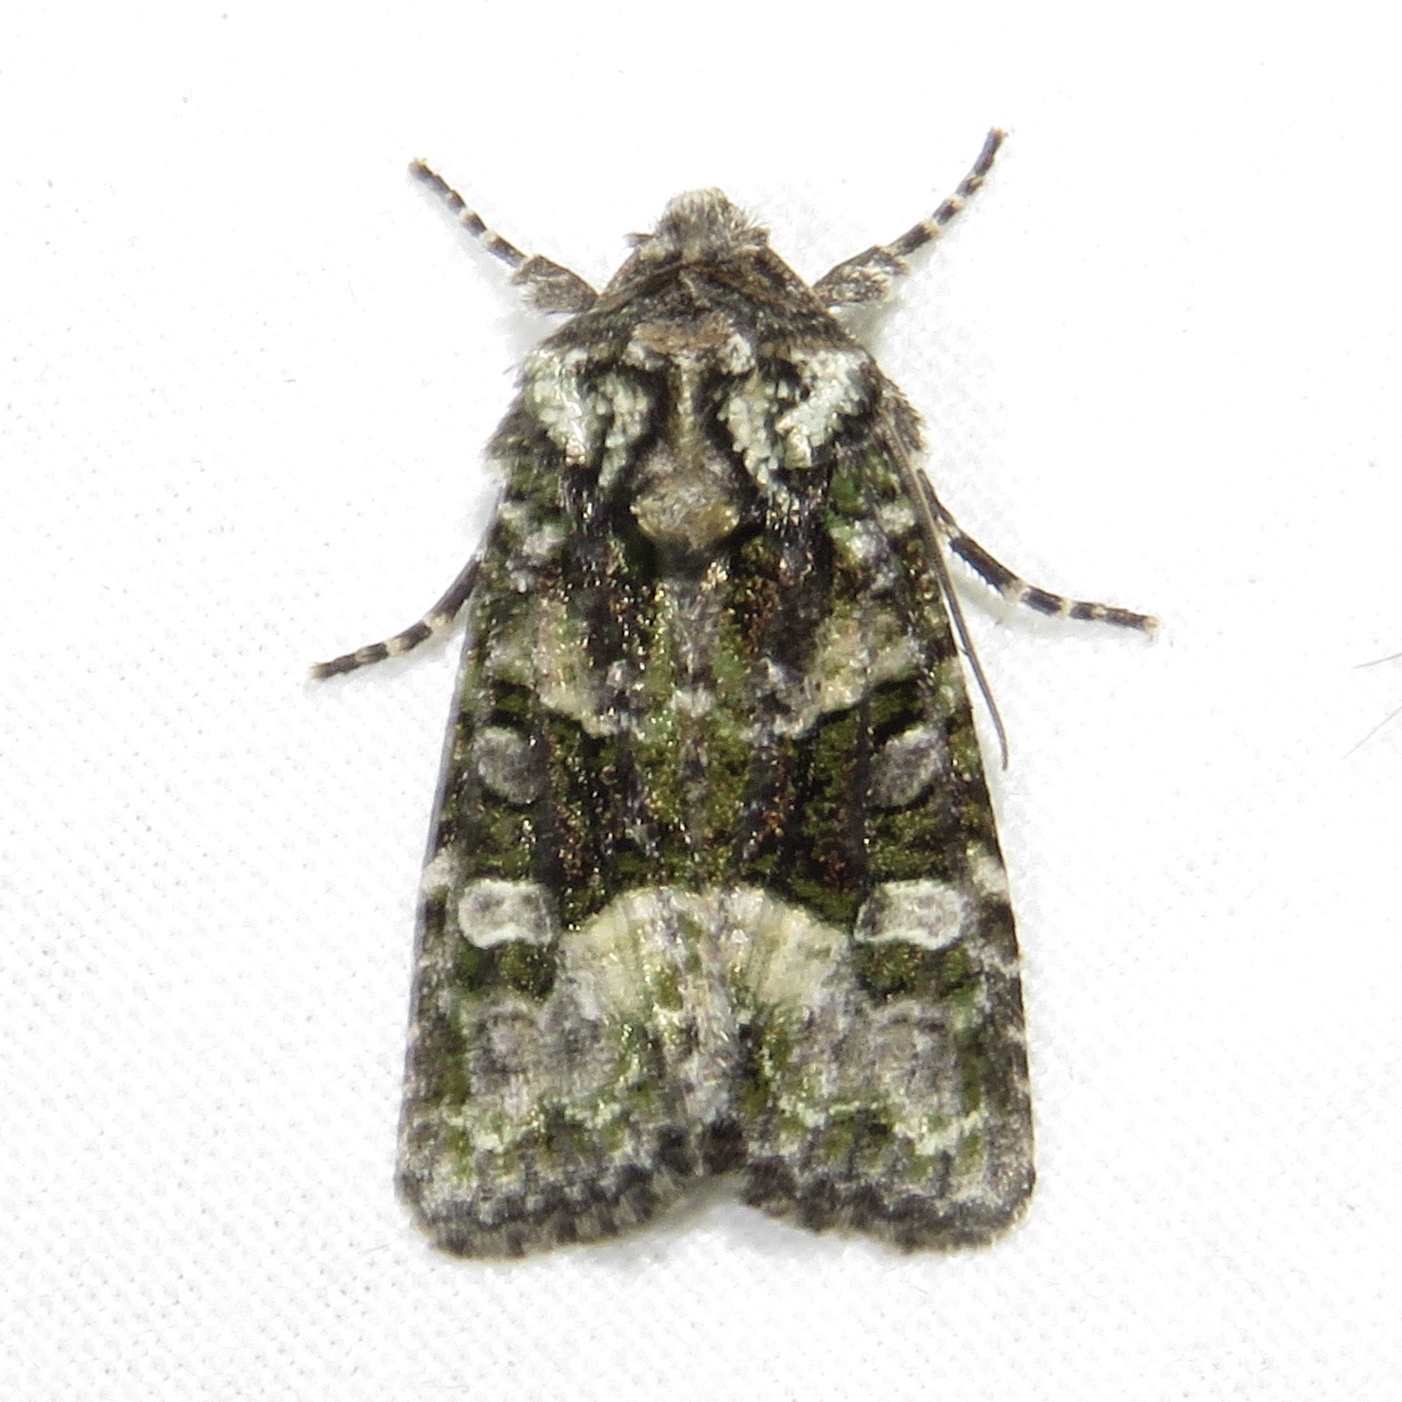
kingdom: Animalia
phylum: Arthropoda
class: Insecta
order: Lepidoptera
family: Noctuidae
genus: Lacinipolia
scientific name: Lacinipolia olivacea
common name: Olive arches moth
